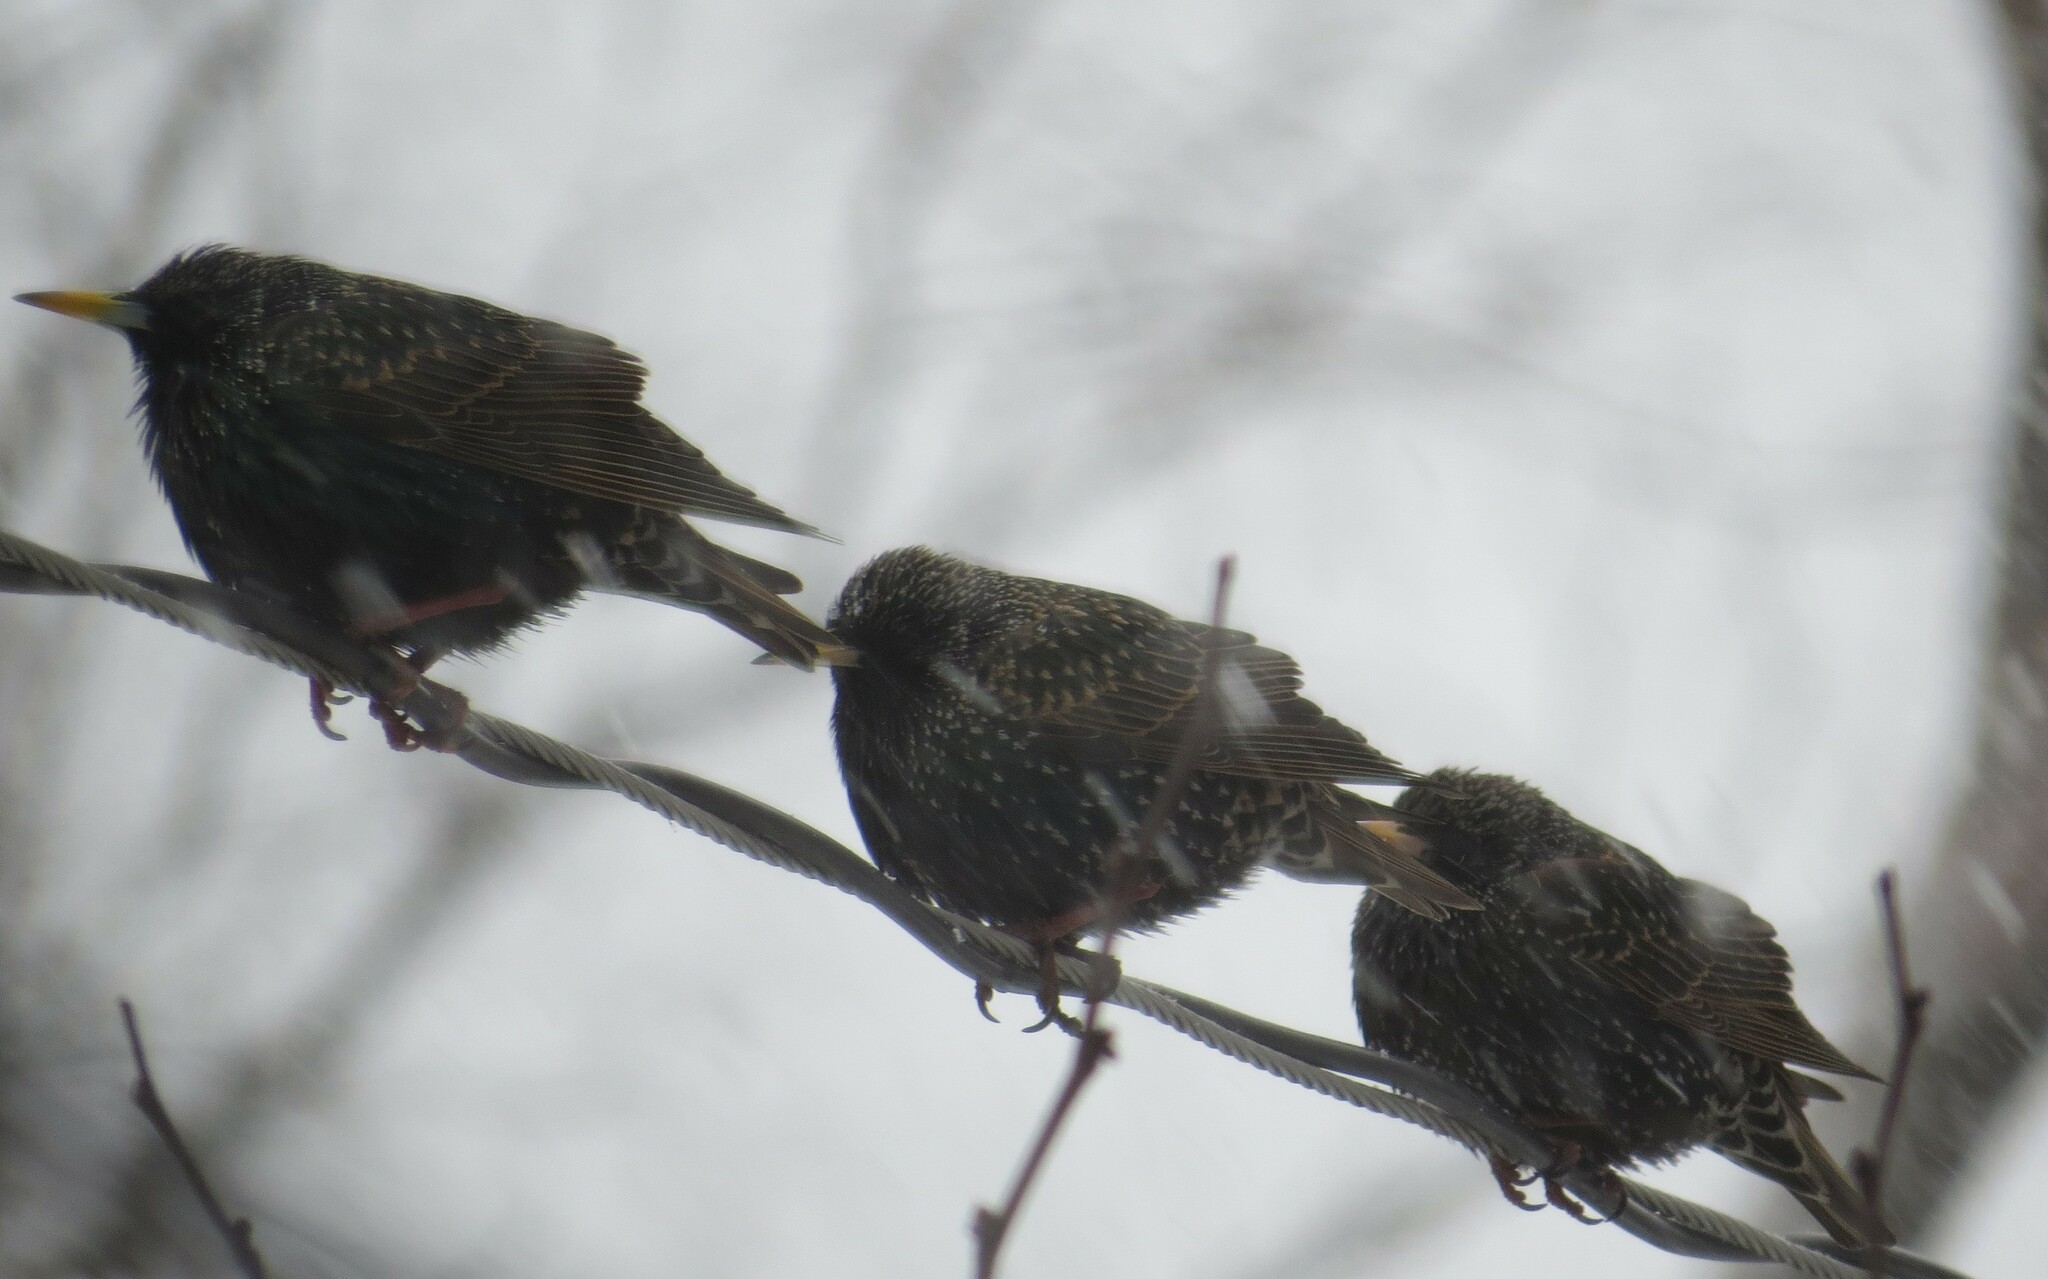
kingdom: Animalia
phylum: Chordata
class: Aves
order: Passeriformes
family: Sturnidae
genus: Sturnus
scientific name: Sturnus vulgaris
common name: Common starling
